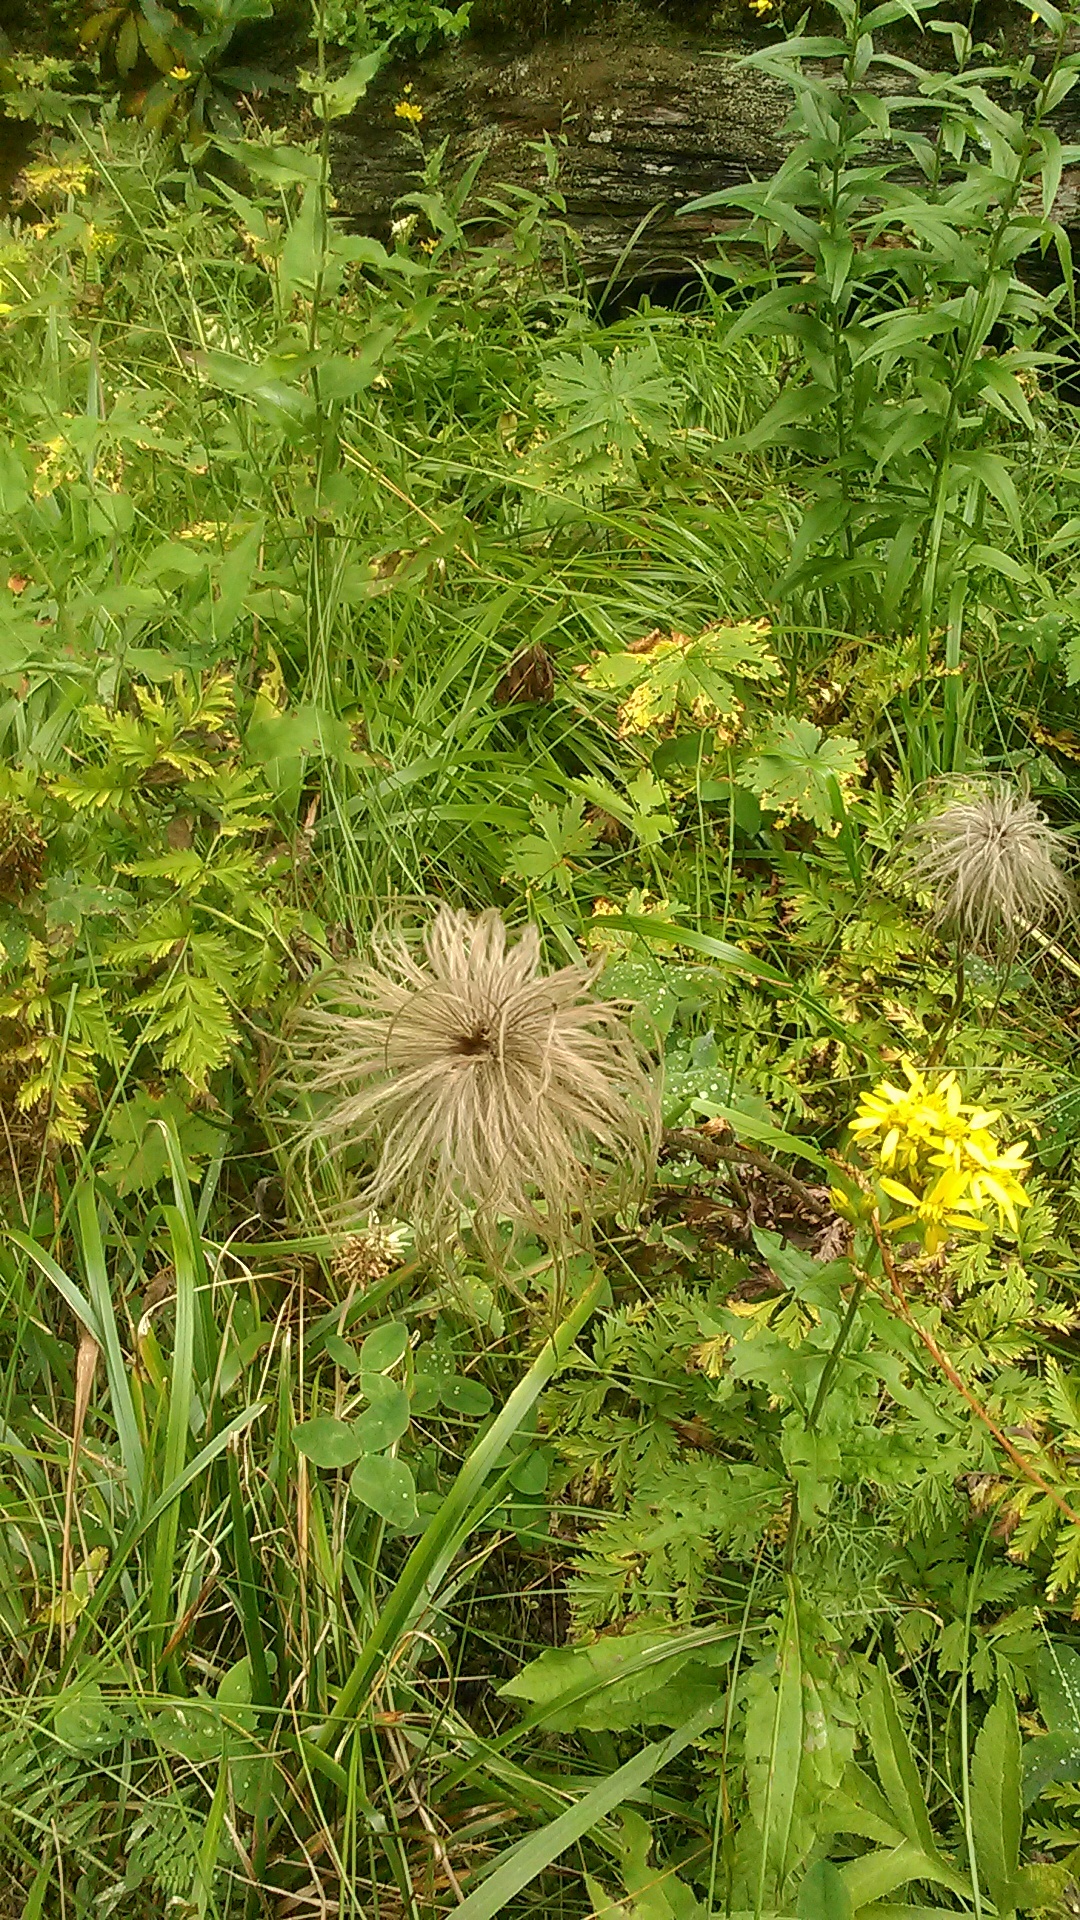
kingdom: Plantae
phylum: Tracheophyta
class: Magnoliopsida
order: Ranunculales
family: Ranunculaceae
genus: Pulsatilla
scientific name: Pulsatilla aurea
